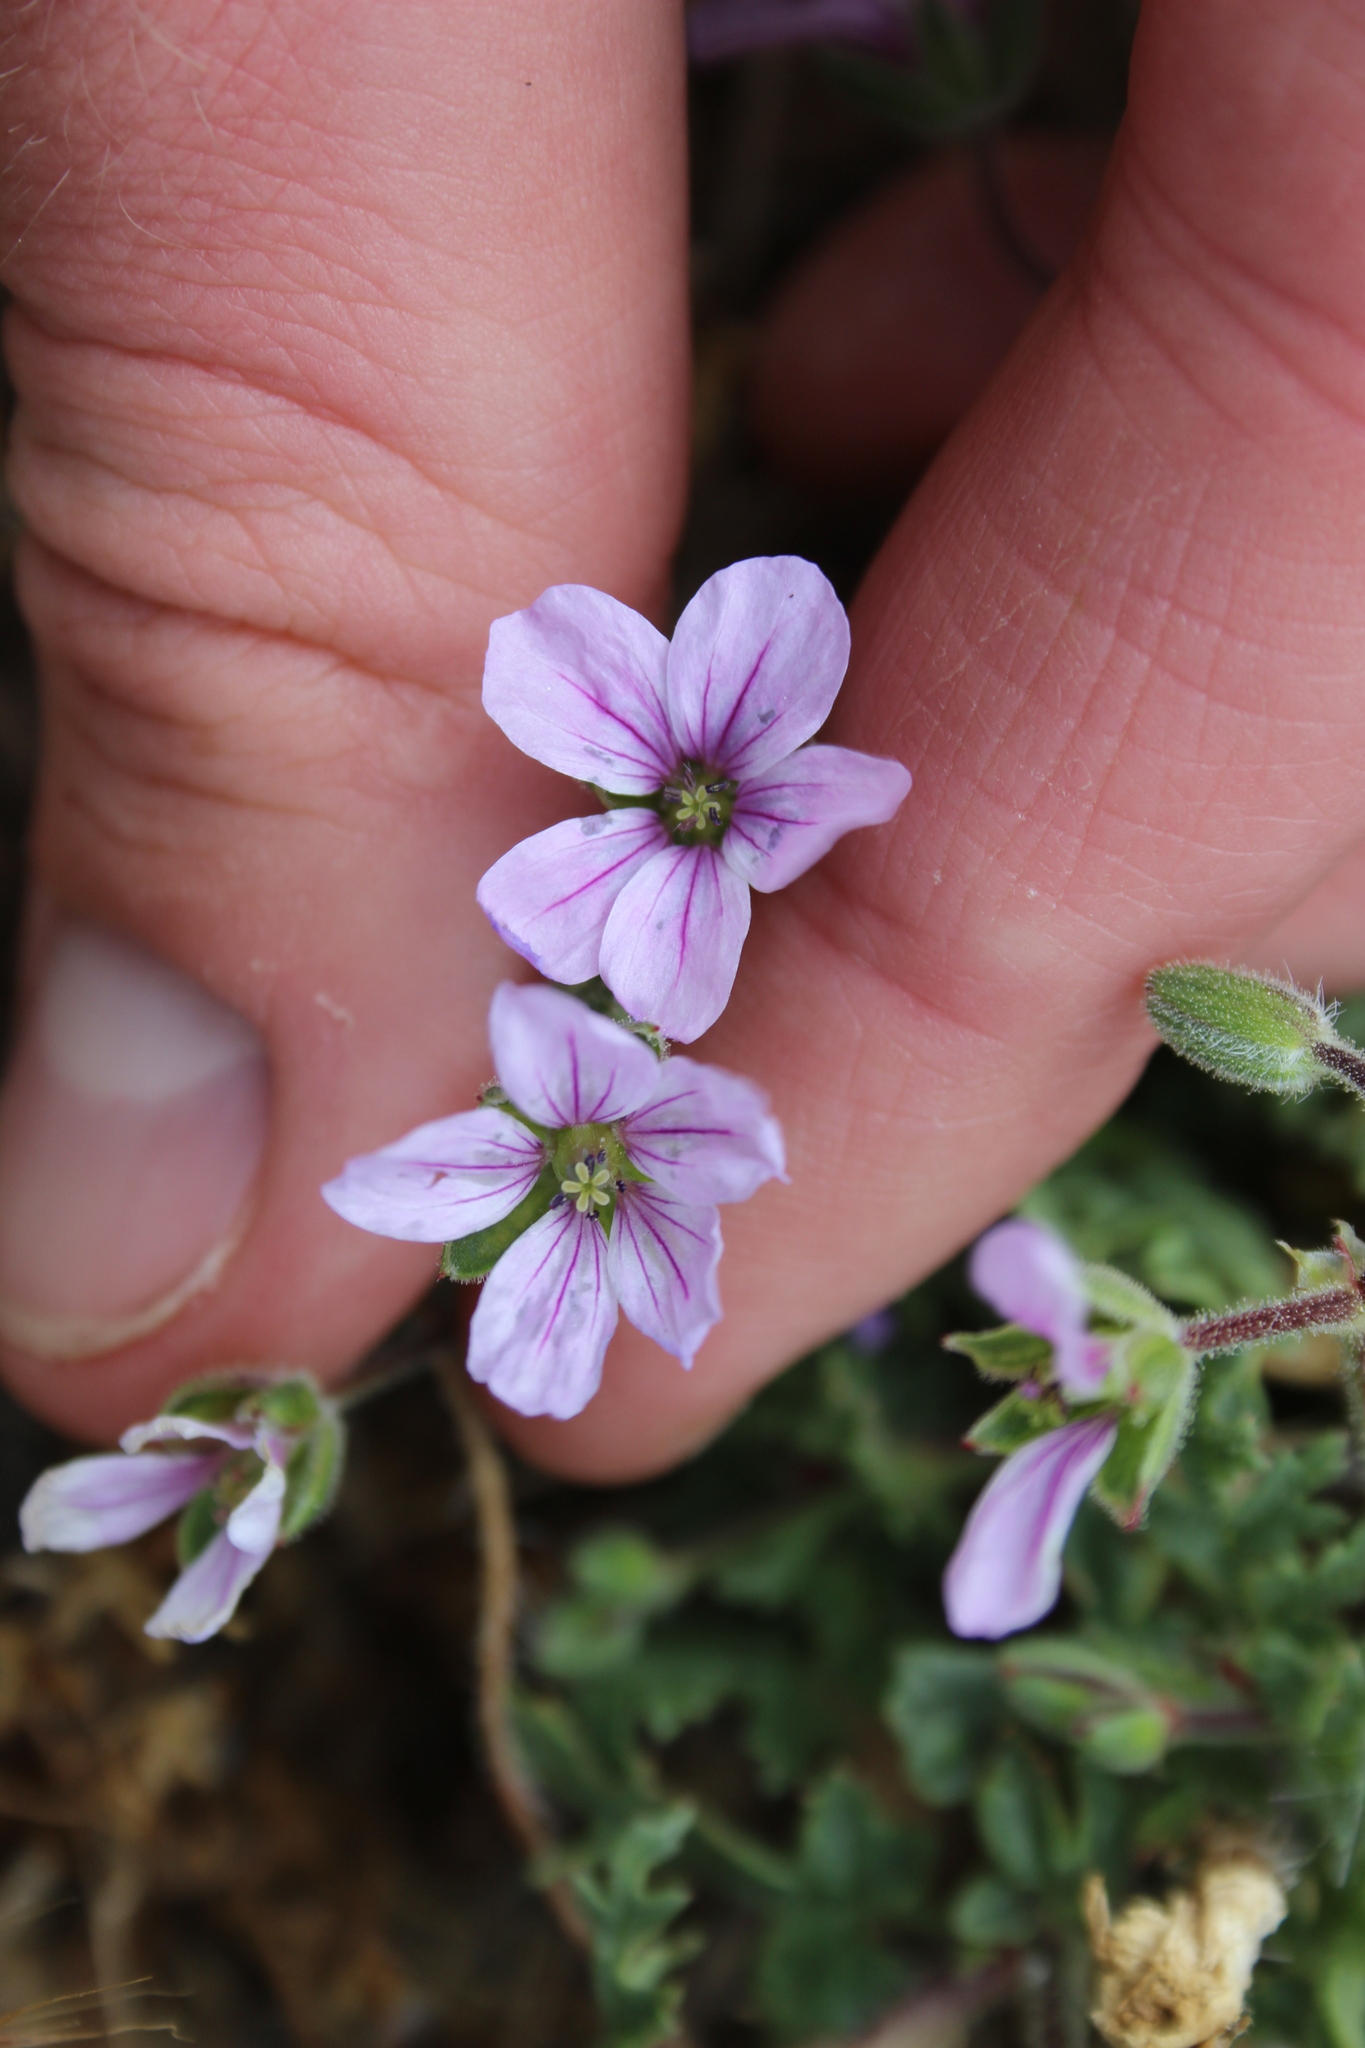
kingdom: Plantae
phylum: Tracheophyta
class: Magnoliopsida
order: Geraniales
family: Geraniaceae
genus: Erodium
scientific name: Erodium botrys
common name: Mediterranean stork's-bill
